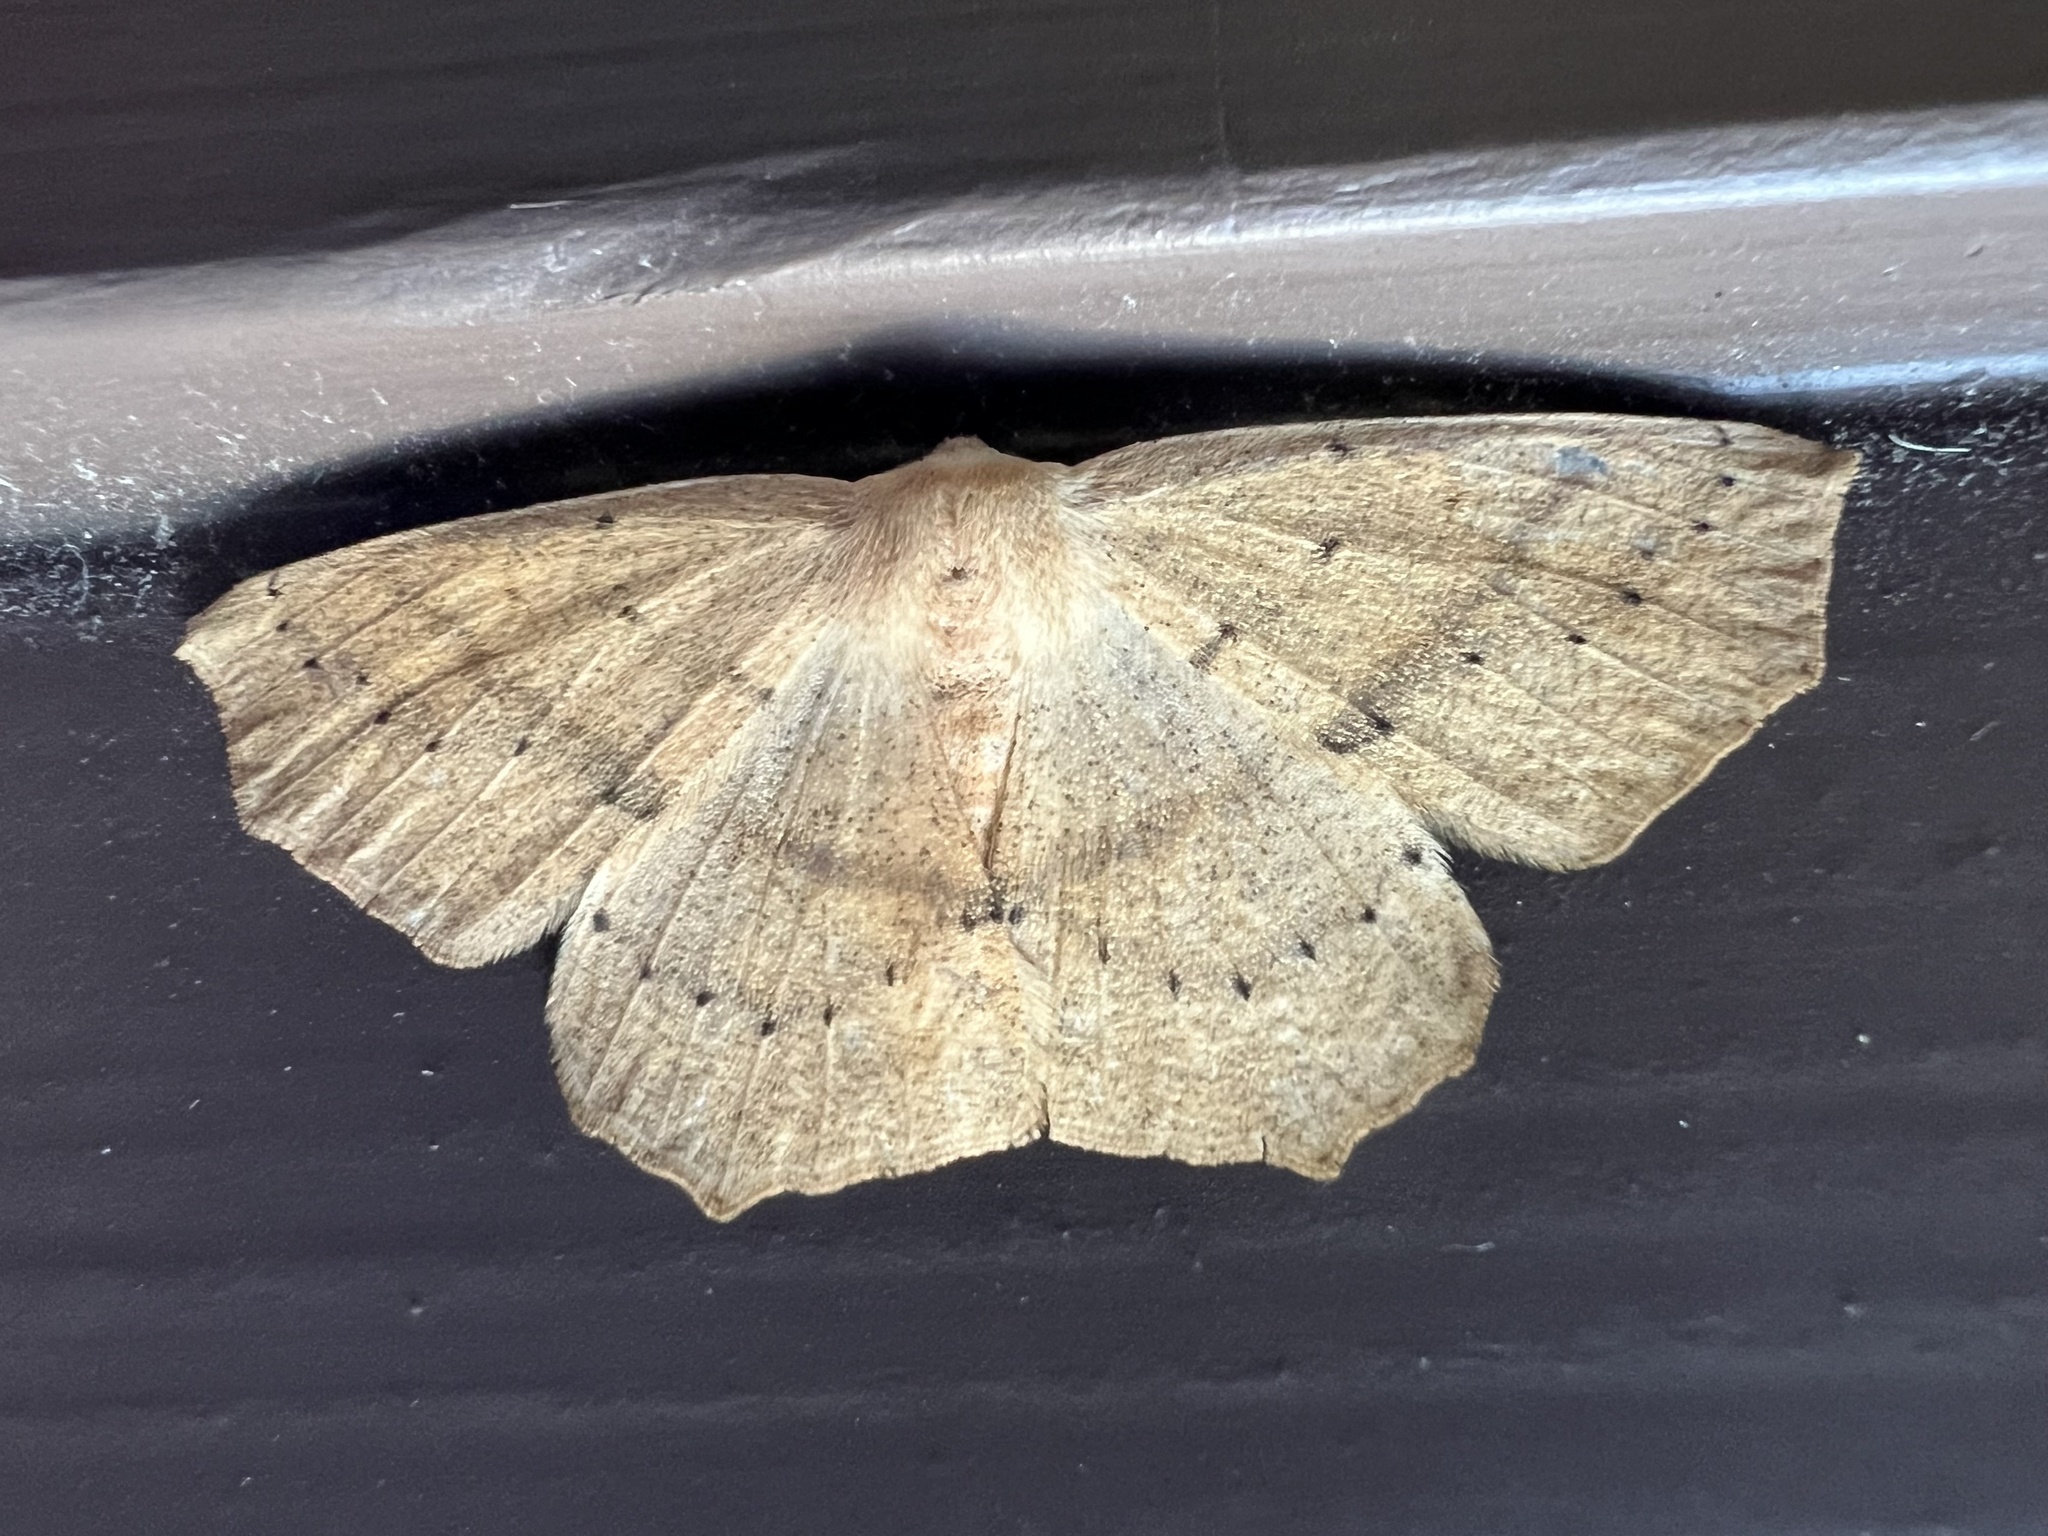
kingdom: Animalia
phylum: Arthropoda
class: Insecta
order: Lepidoptera
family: Geometridae
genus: Sabulodes
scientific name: Sabulodes aegrotata
